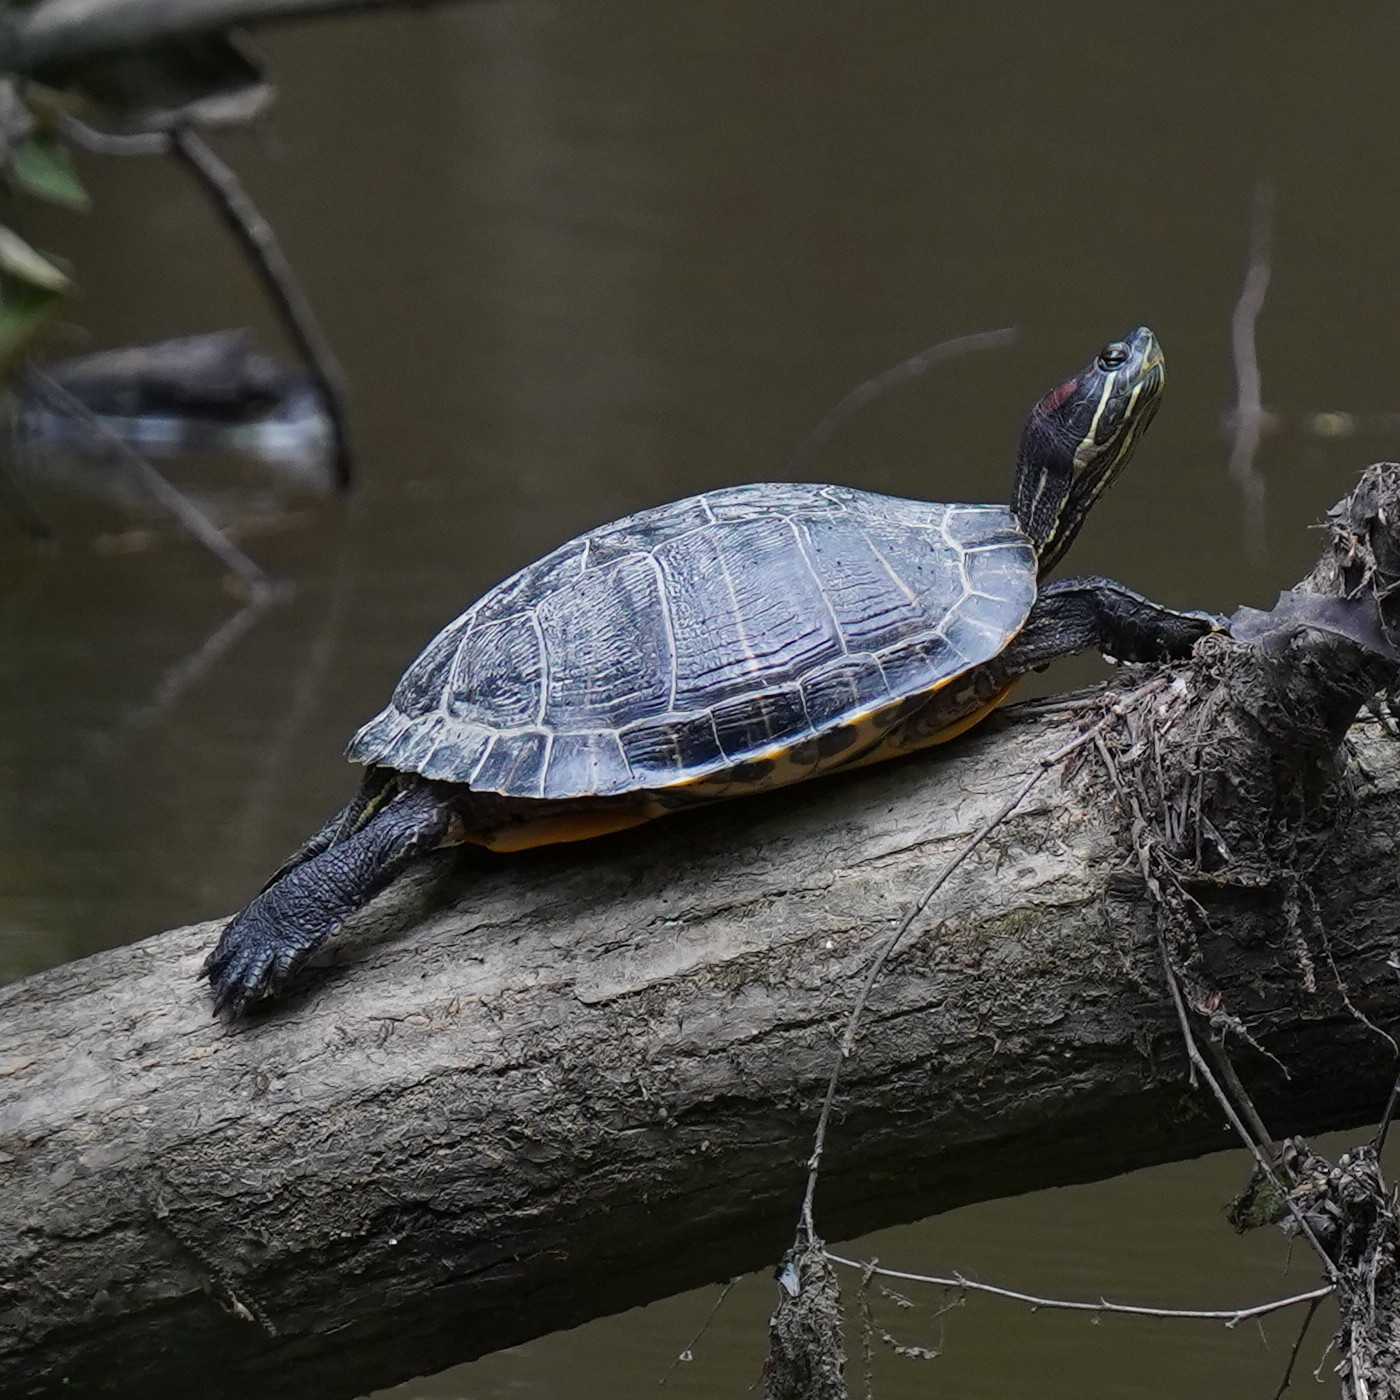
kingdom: Animalia
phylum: Chordata
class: Testudines
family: Emydidae
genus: Trachemys
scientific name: Trachemys scripta
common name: Slider
